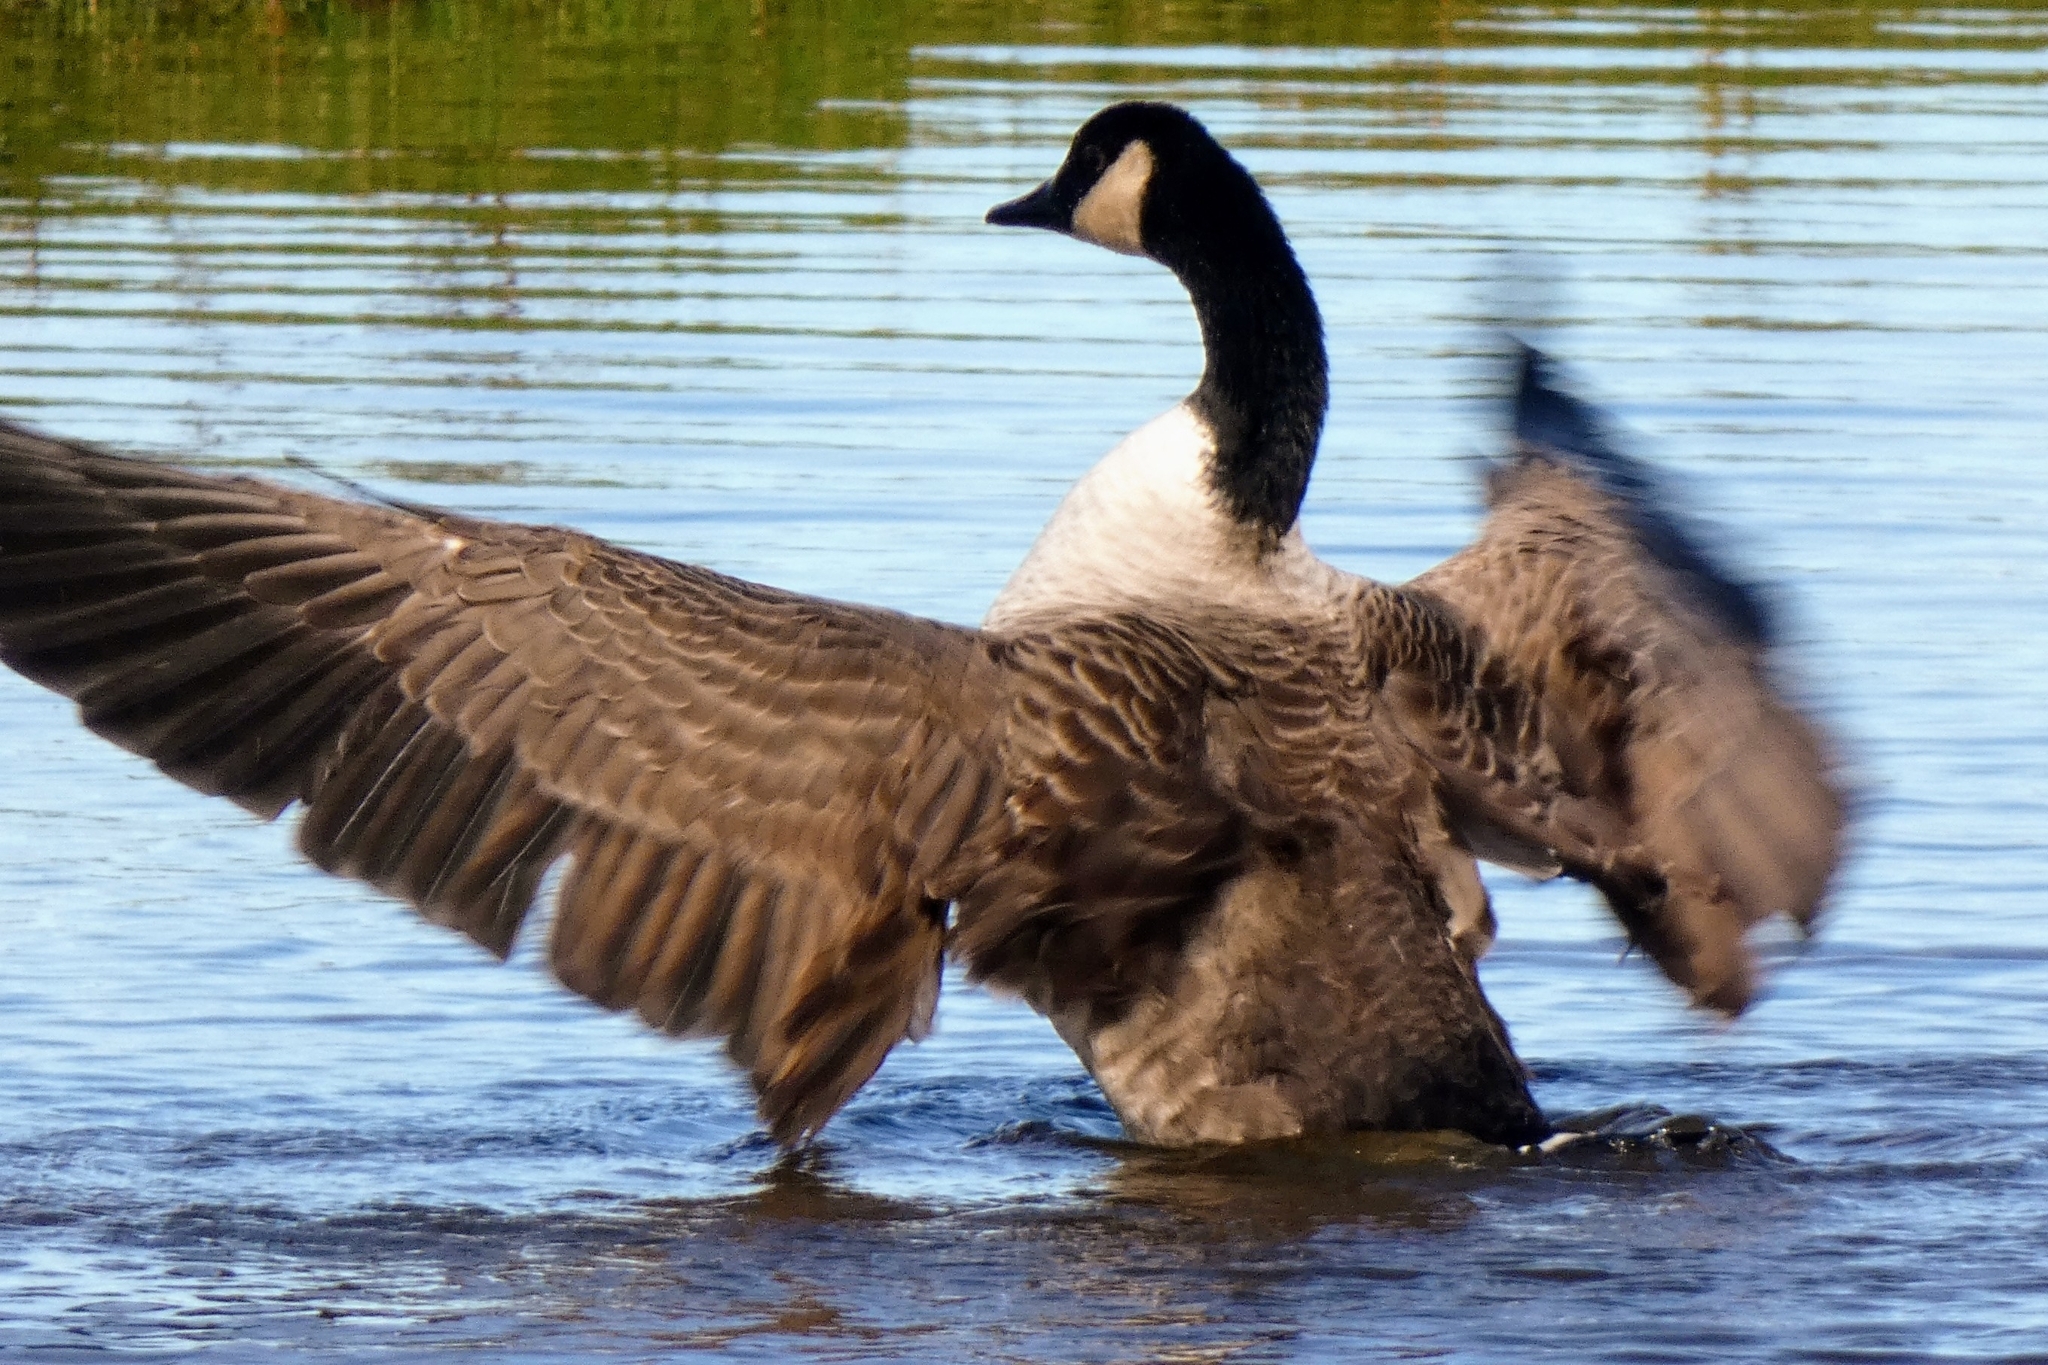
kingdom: Animalia
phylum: Chordata
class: Aves
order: Anseriformes
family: Anatidae
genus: Branta
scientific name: Branta canadensis
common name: Canada goose
